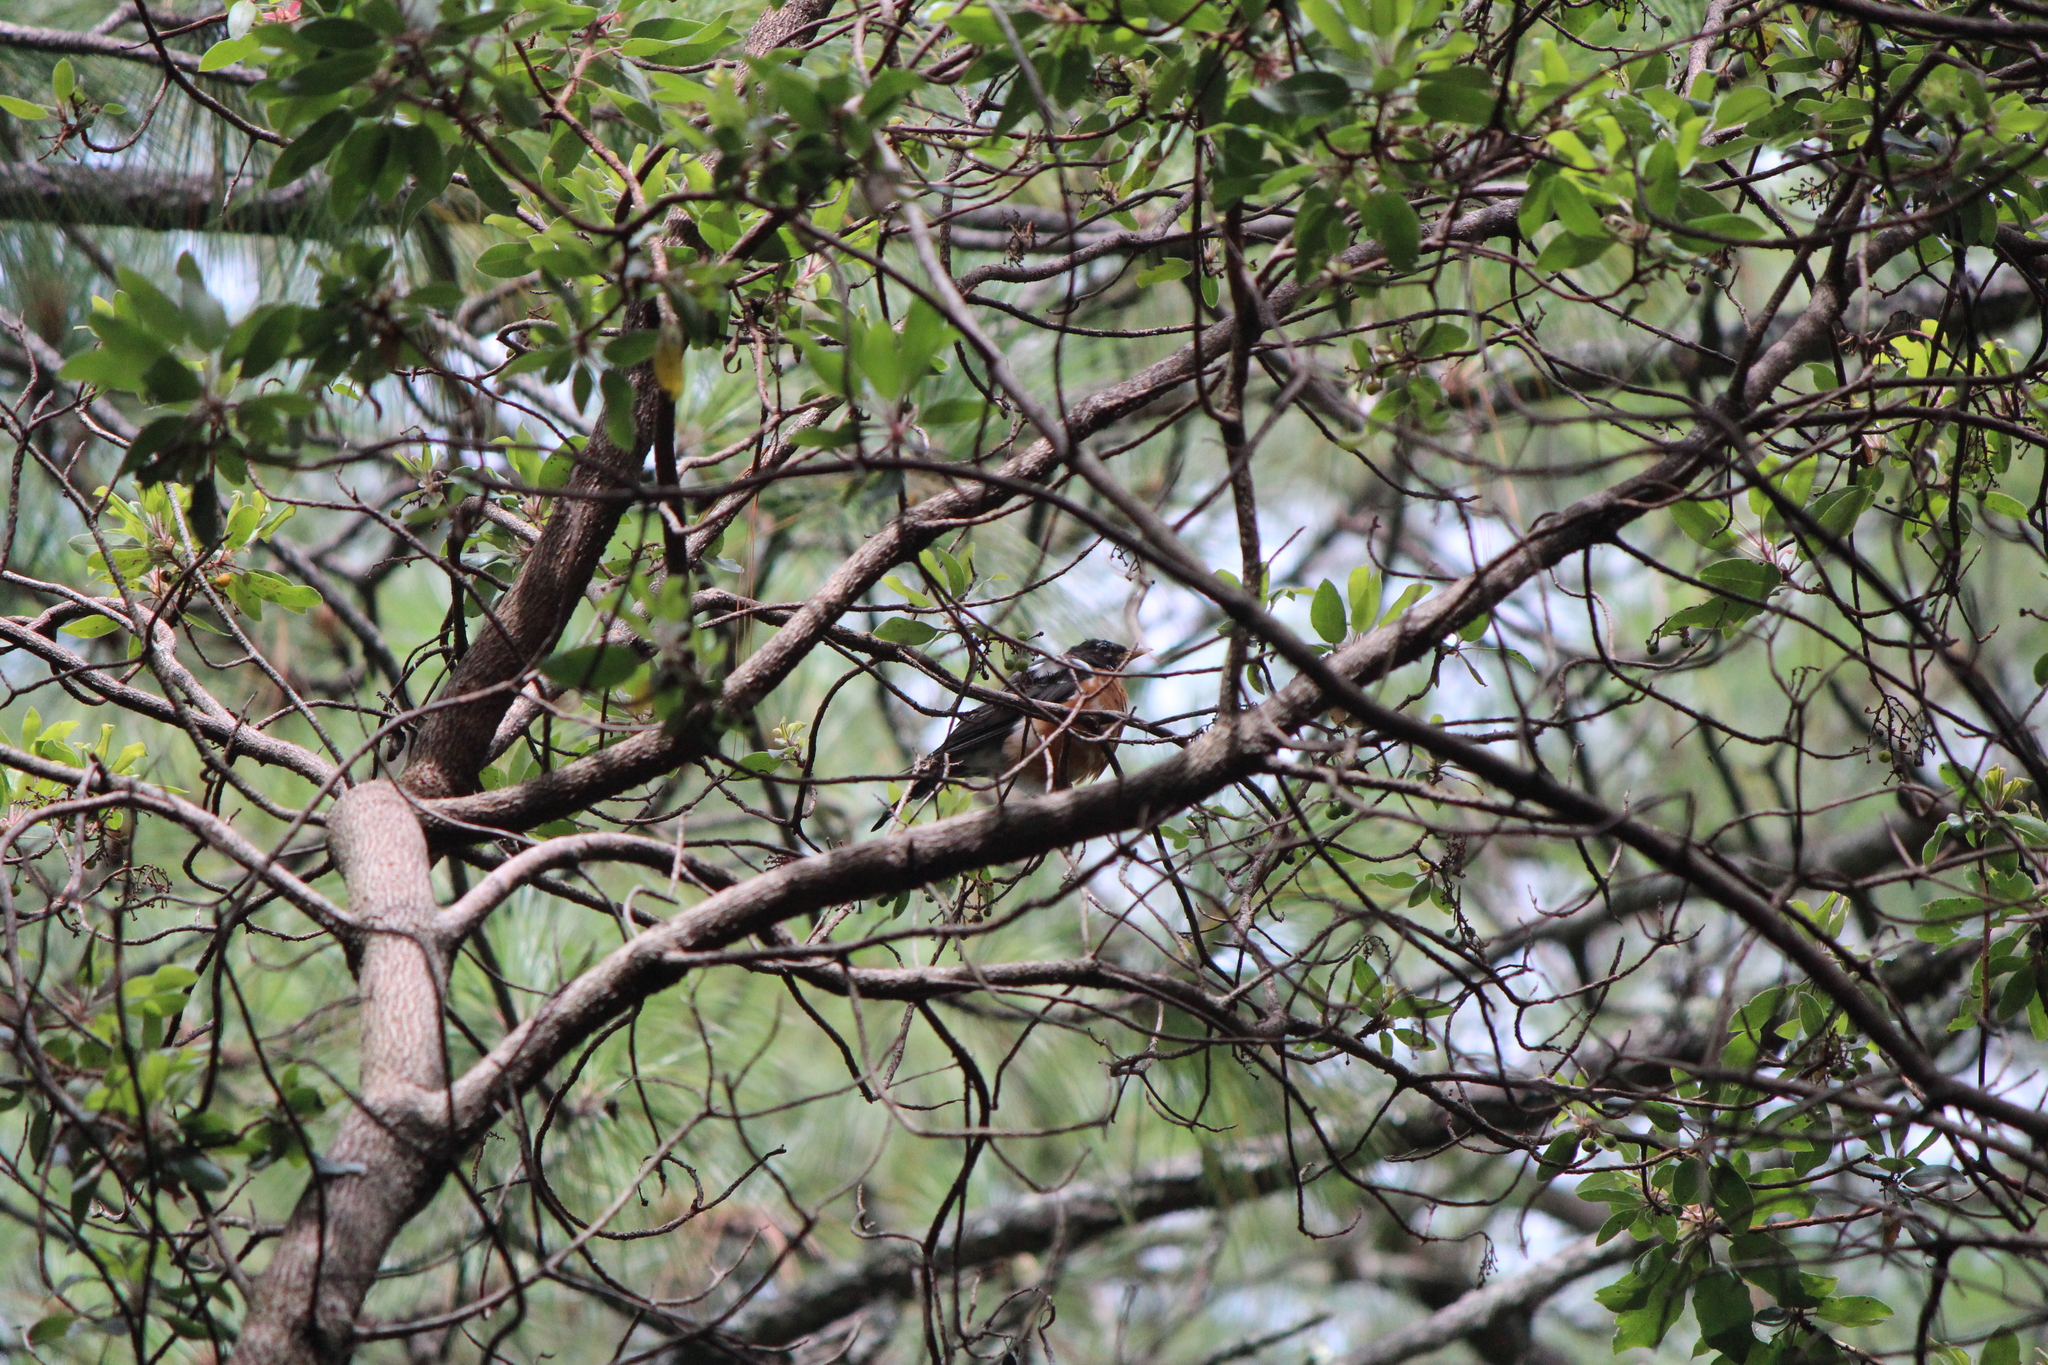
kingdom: Animalia
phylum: Chordata
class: Aves
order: Passeriformes
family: Turdidae
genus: Turdus
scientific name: Turdus migratorius
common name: American robin
